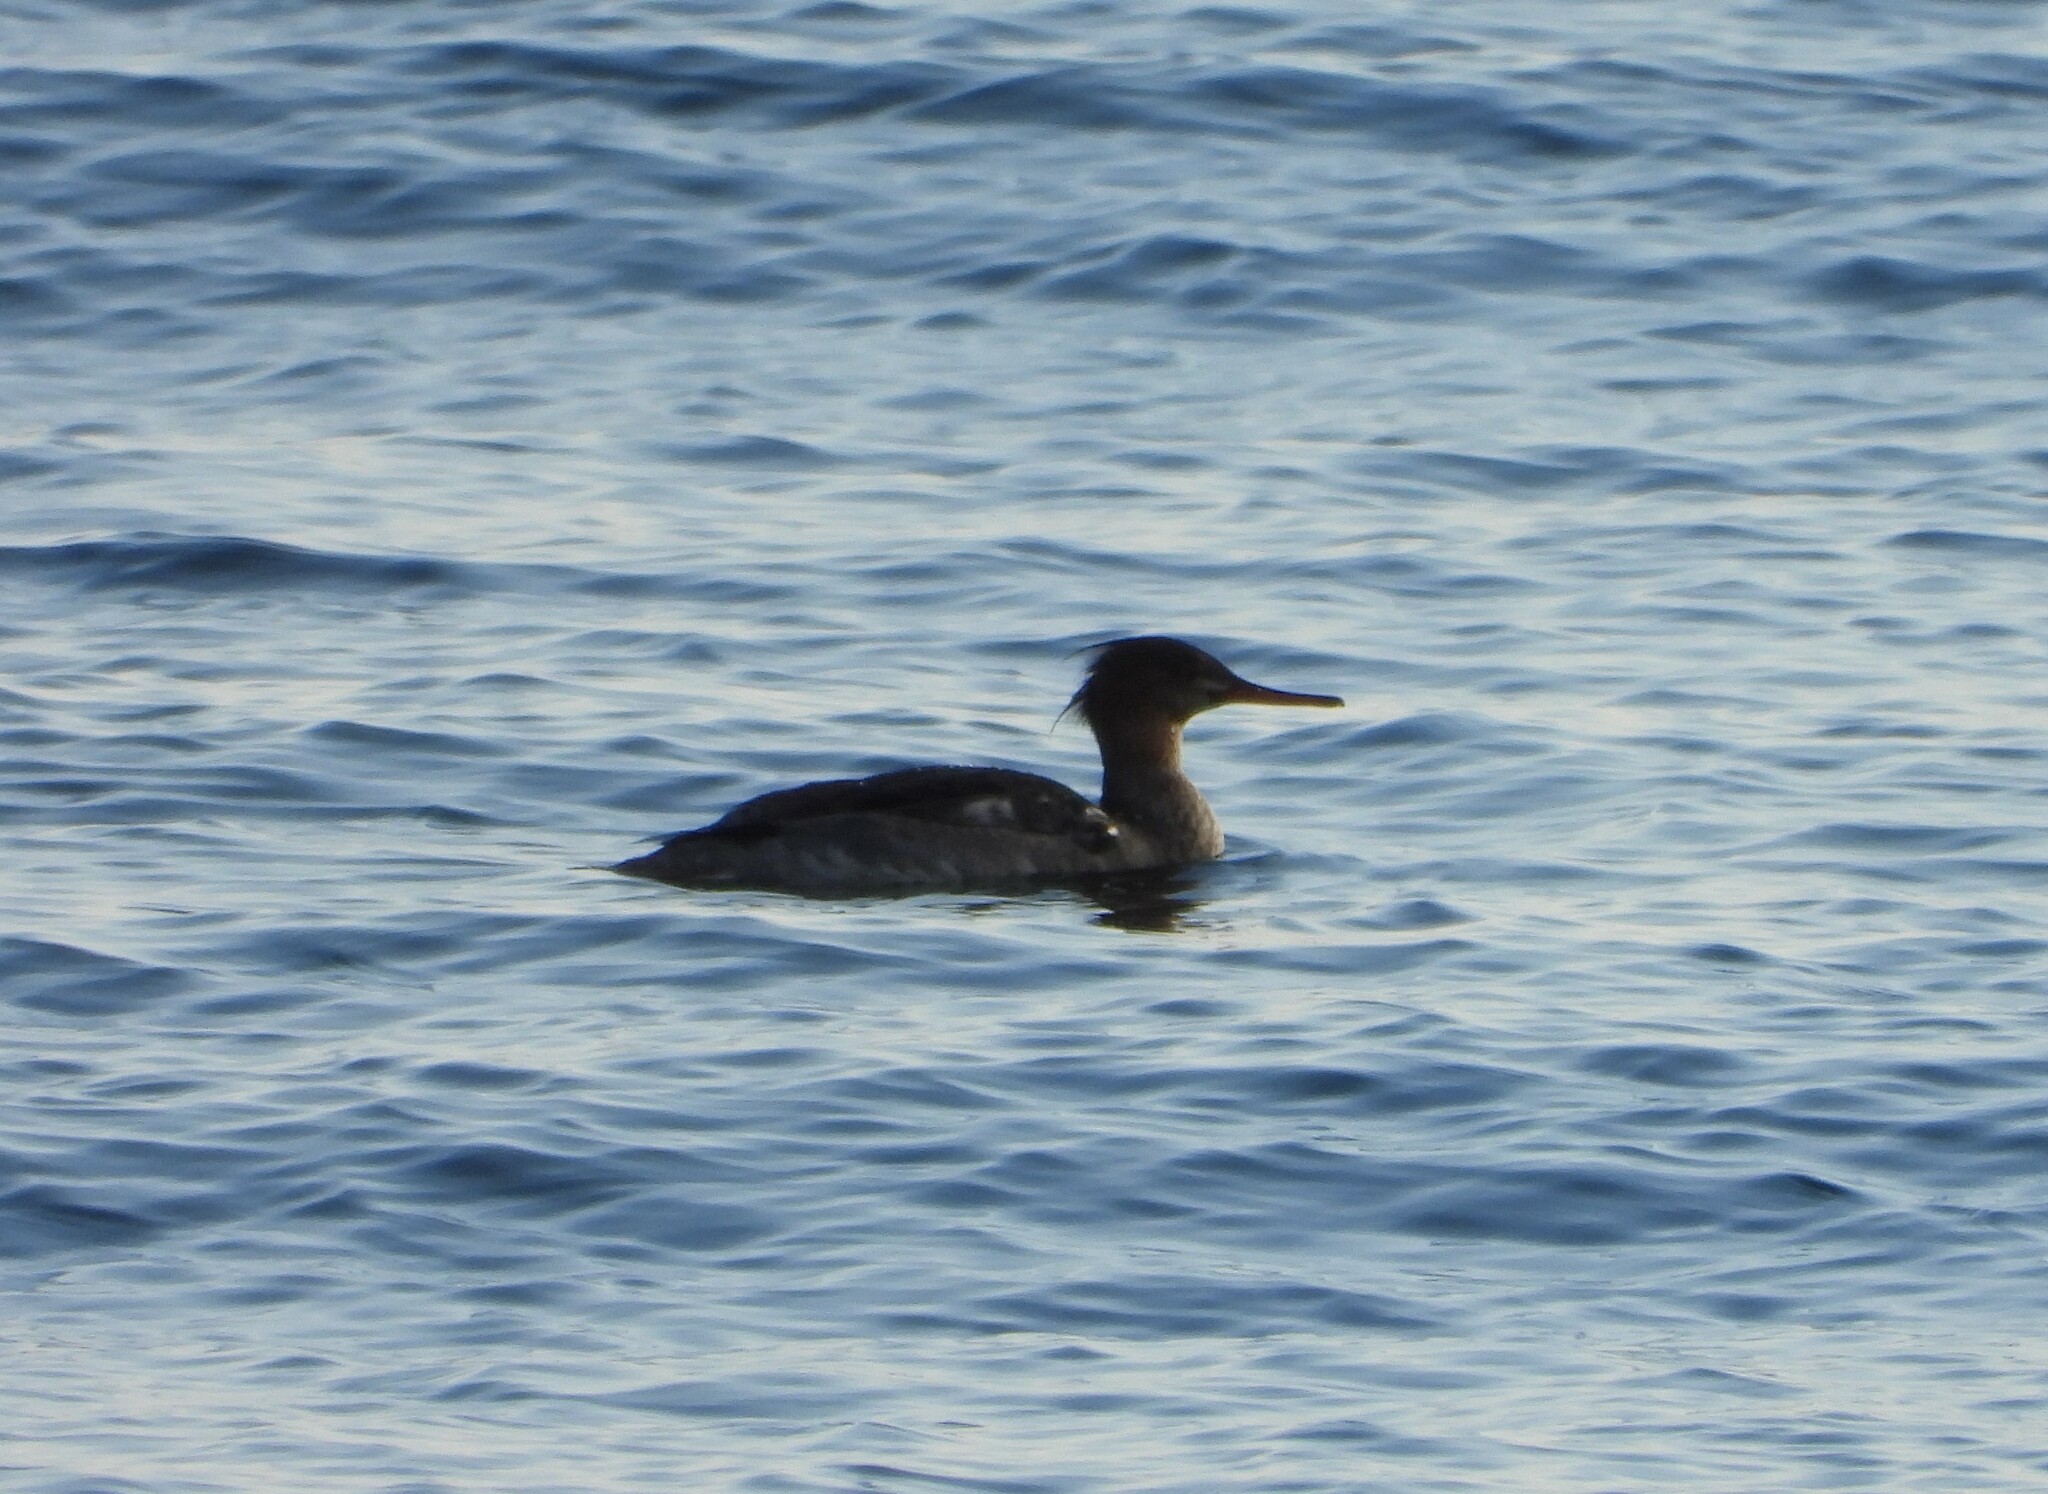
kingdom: Animalia
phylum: Chordata
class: Aves
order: Anseriformes
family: Anatidae
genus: Mergus
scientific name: Mergus serrator
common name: Red-breasted merganser
